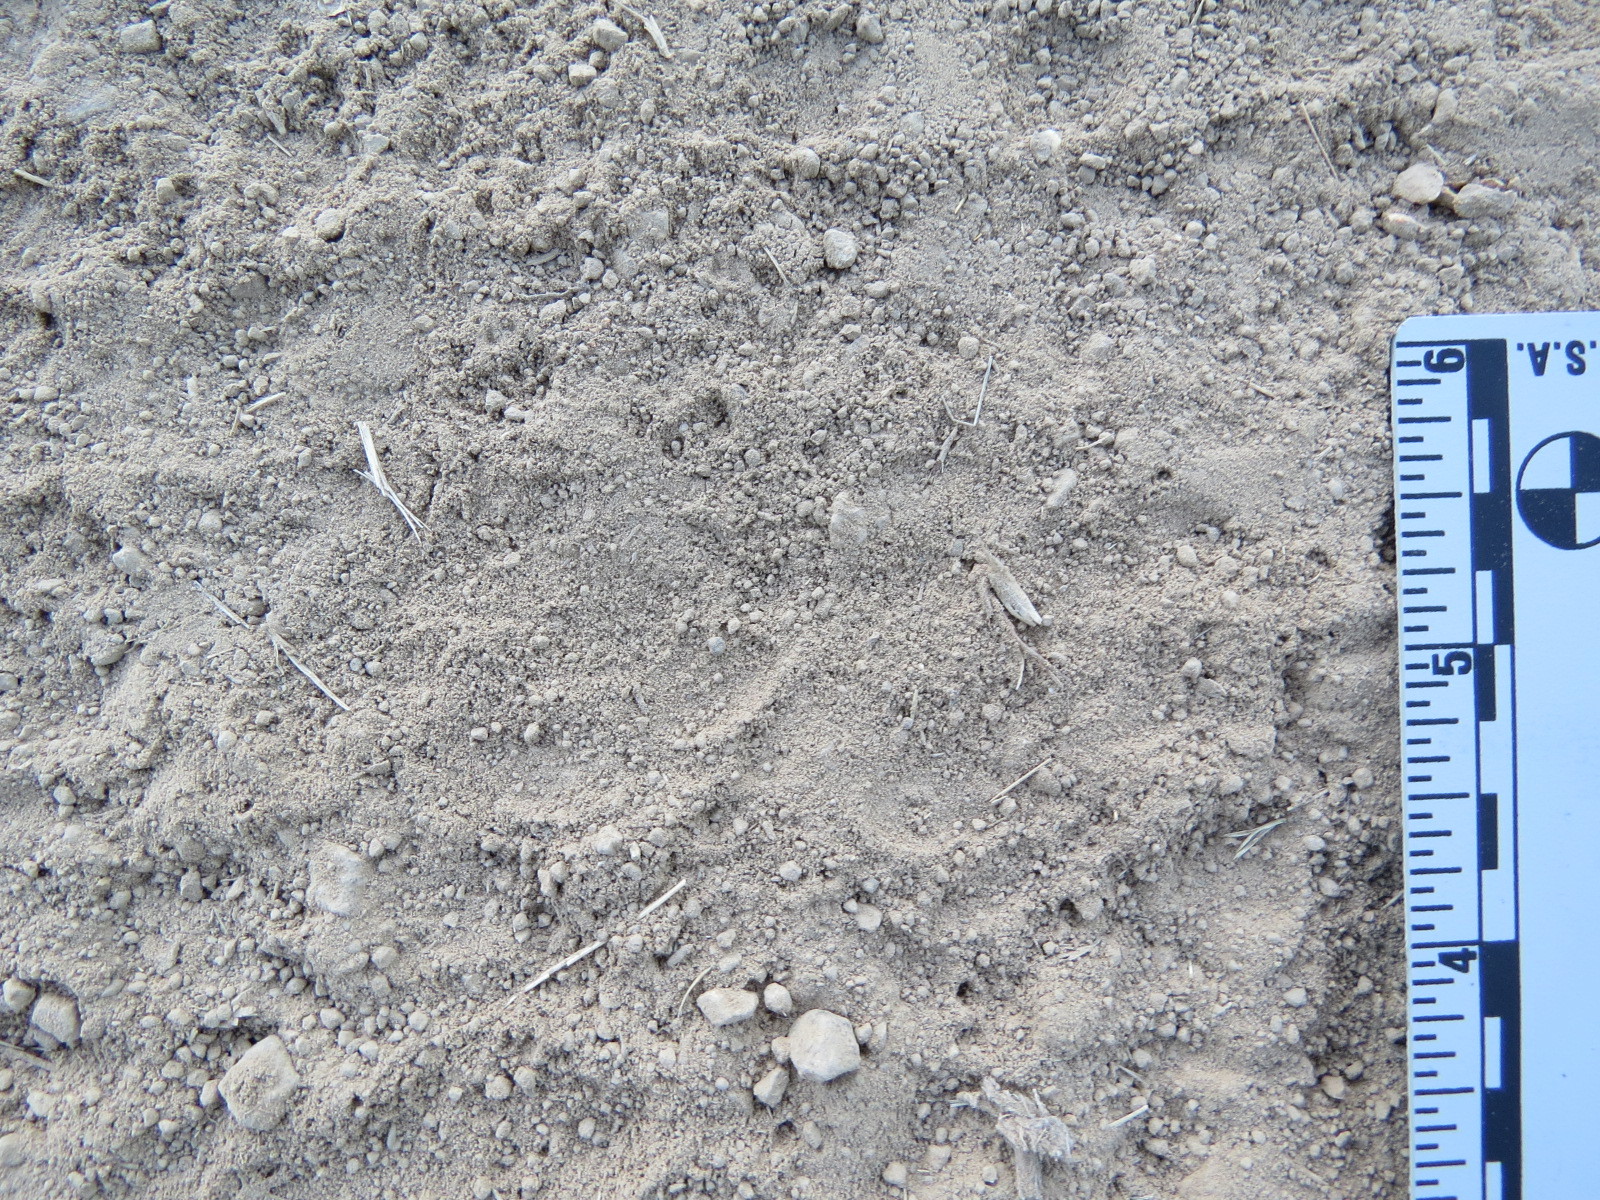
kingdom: Animalia
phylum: Chordata
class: Mammalia
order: Carnivora
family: Canidae
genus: Urocyon
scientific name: Urocyon cinereoargenteus
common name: Gray fox
